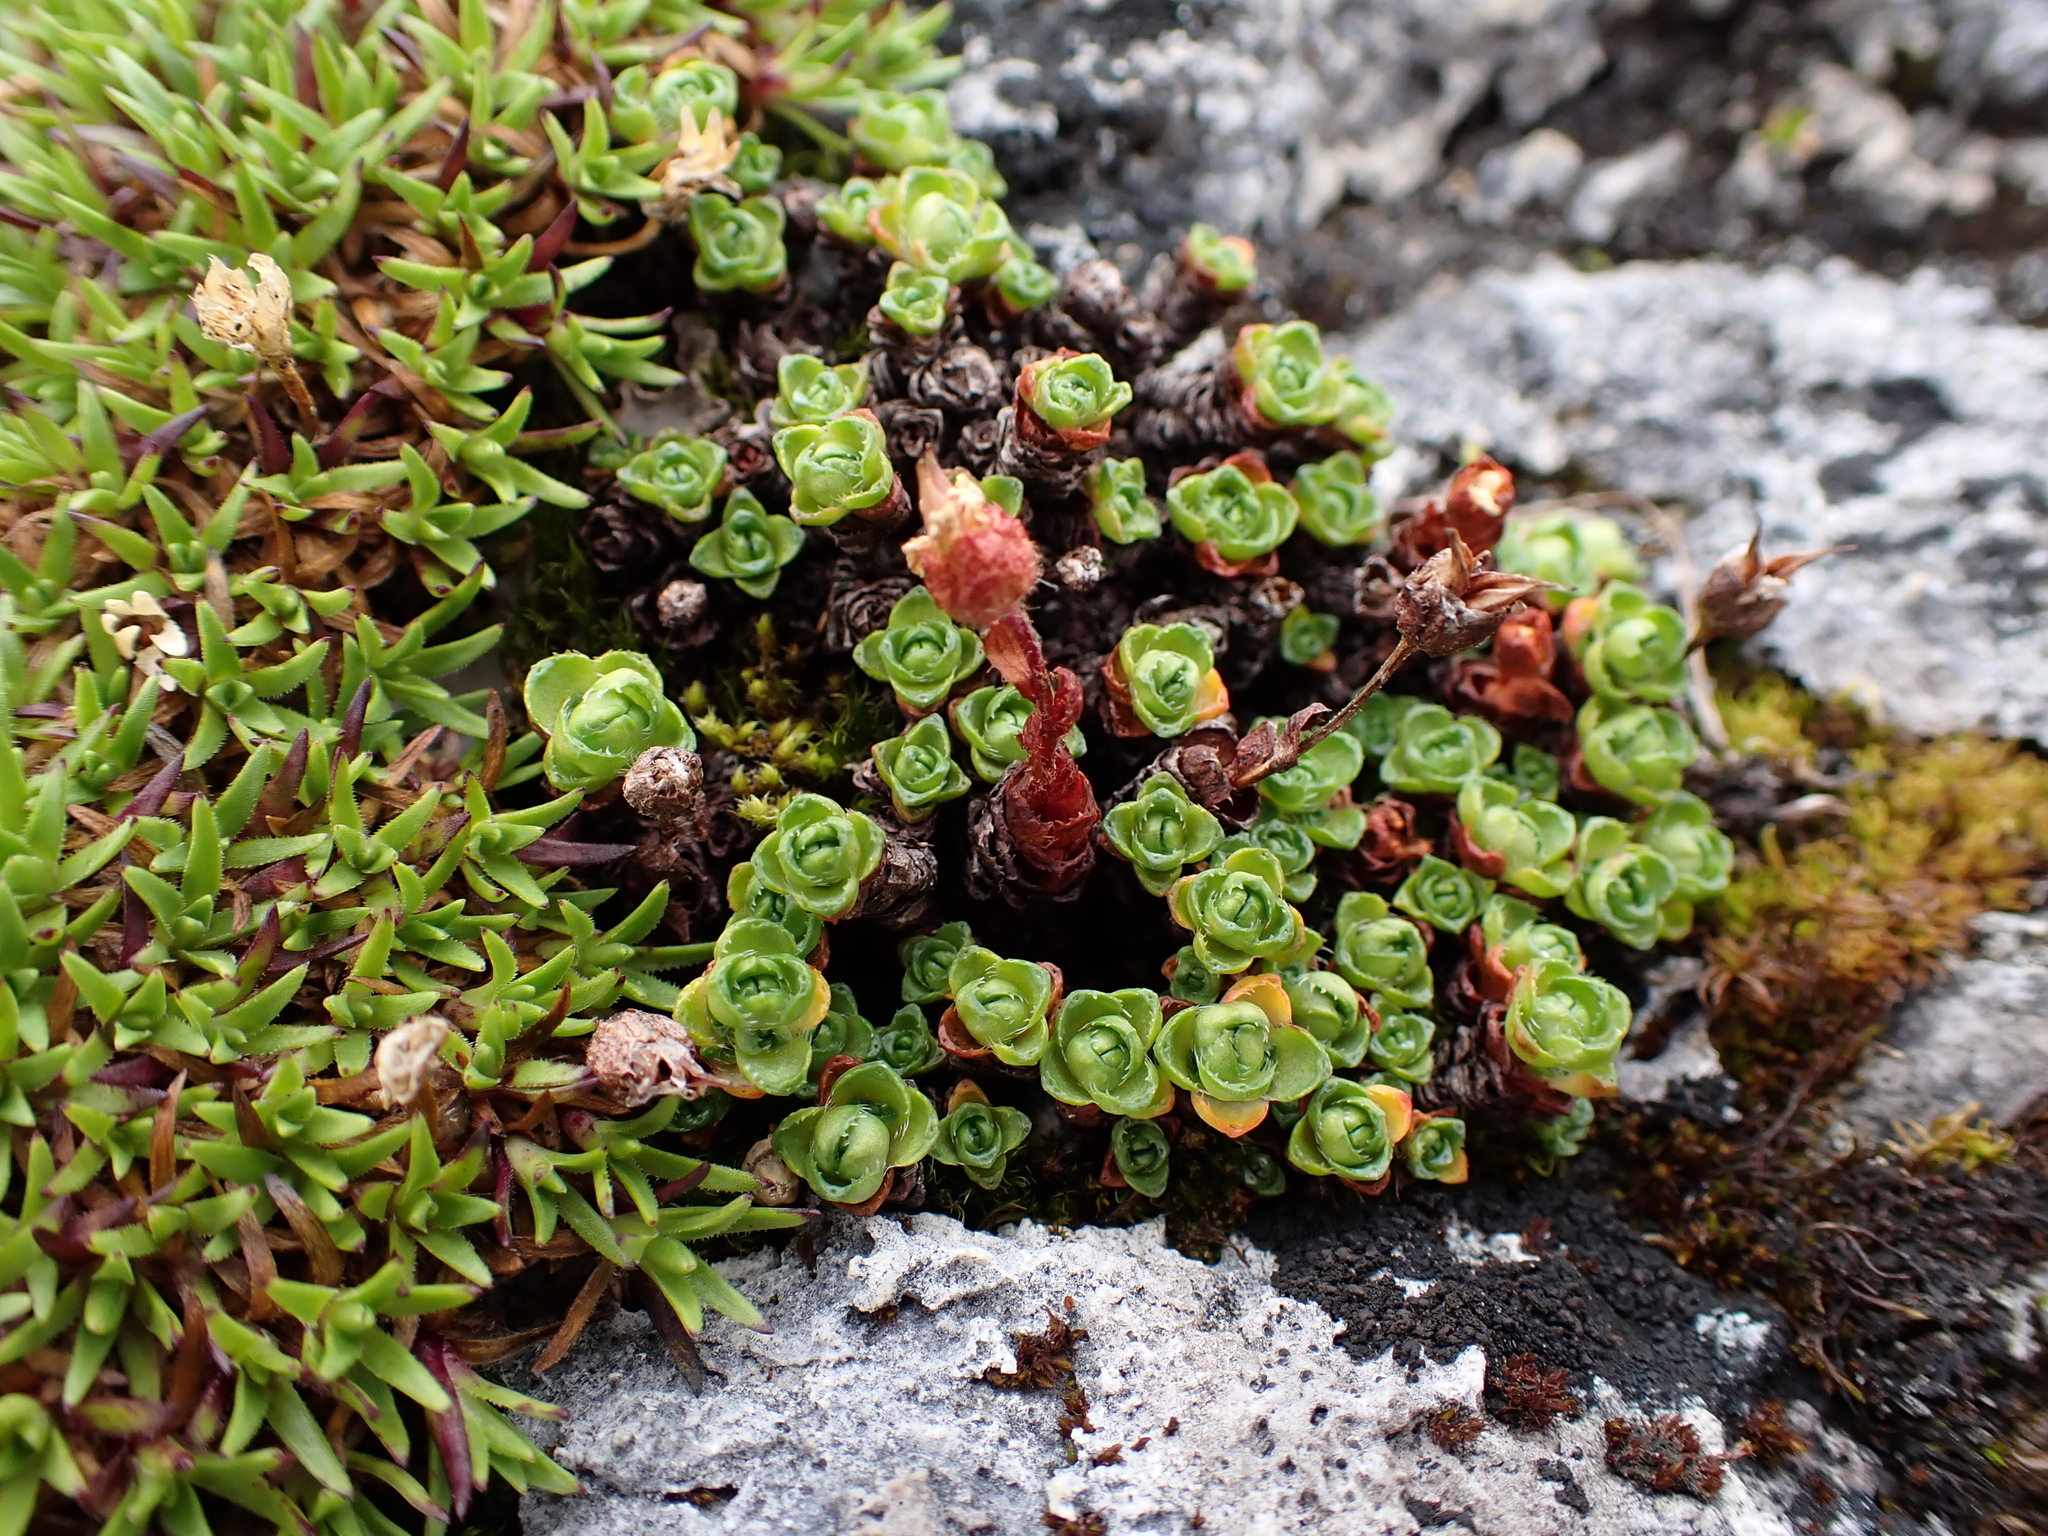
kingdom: Plantae
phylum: Tracheophyta
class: Magnoliopsida
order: Saxifragales
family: Saxifragaceae
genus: Saxifraga
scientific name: Saxifraga oppositifolia
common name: Purple saxifrage
